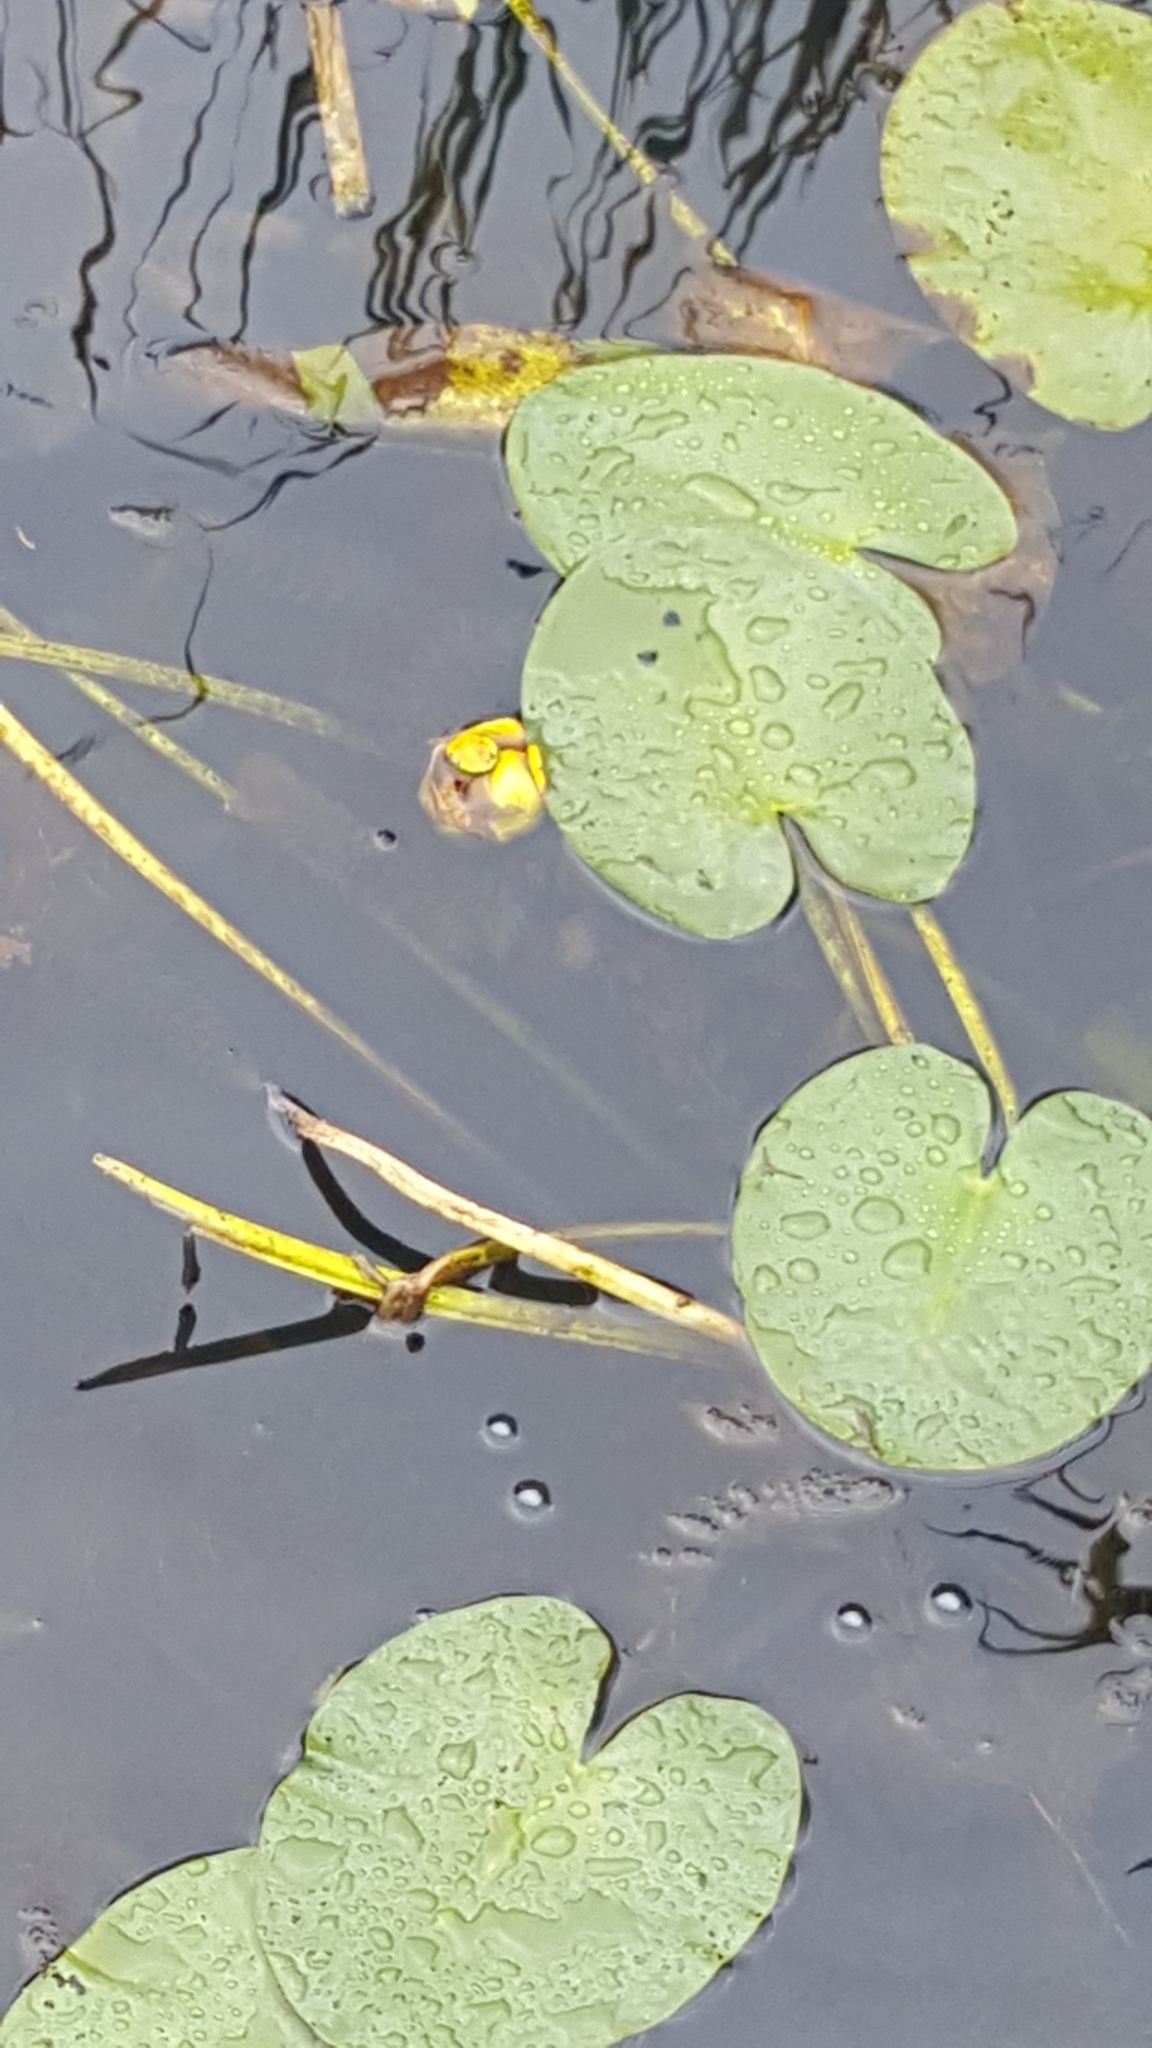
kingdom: Plantae
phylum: Tracheophyta
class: Magnoliopsida
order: Nymphaeales
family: Nymphaeaceae
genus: Nuphar
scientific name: Nuphar variegata
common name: Beaver-root
